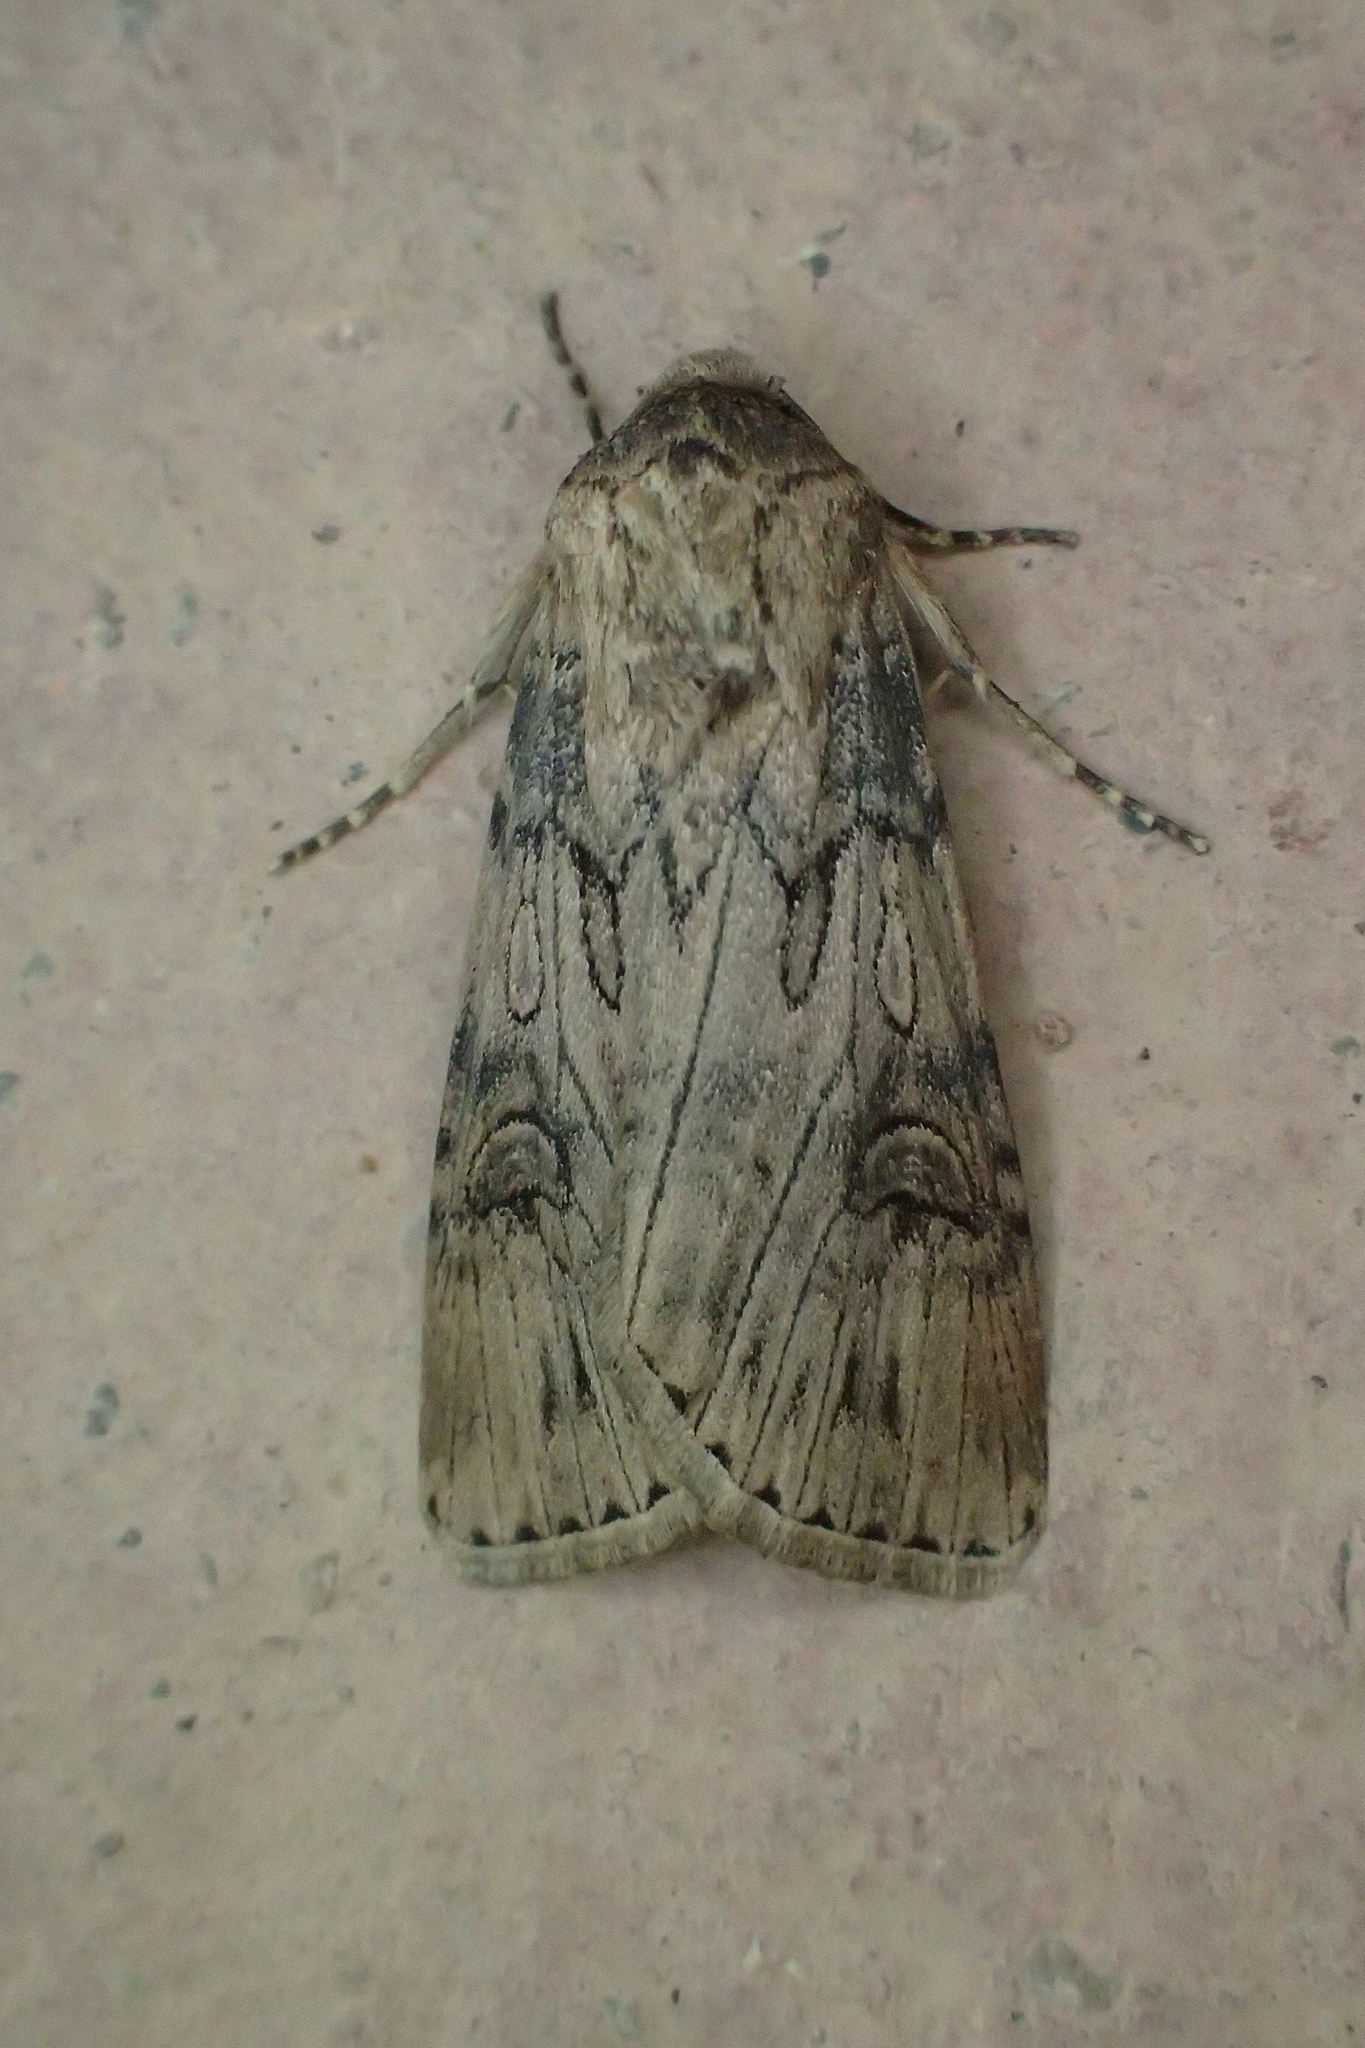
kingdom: Animalia
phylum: Arthropoda
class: Insecta
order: Lepidoptera
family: Noctuidae
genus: Agrotis
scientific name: Agrotis herzogi
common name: Spalding's dart
